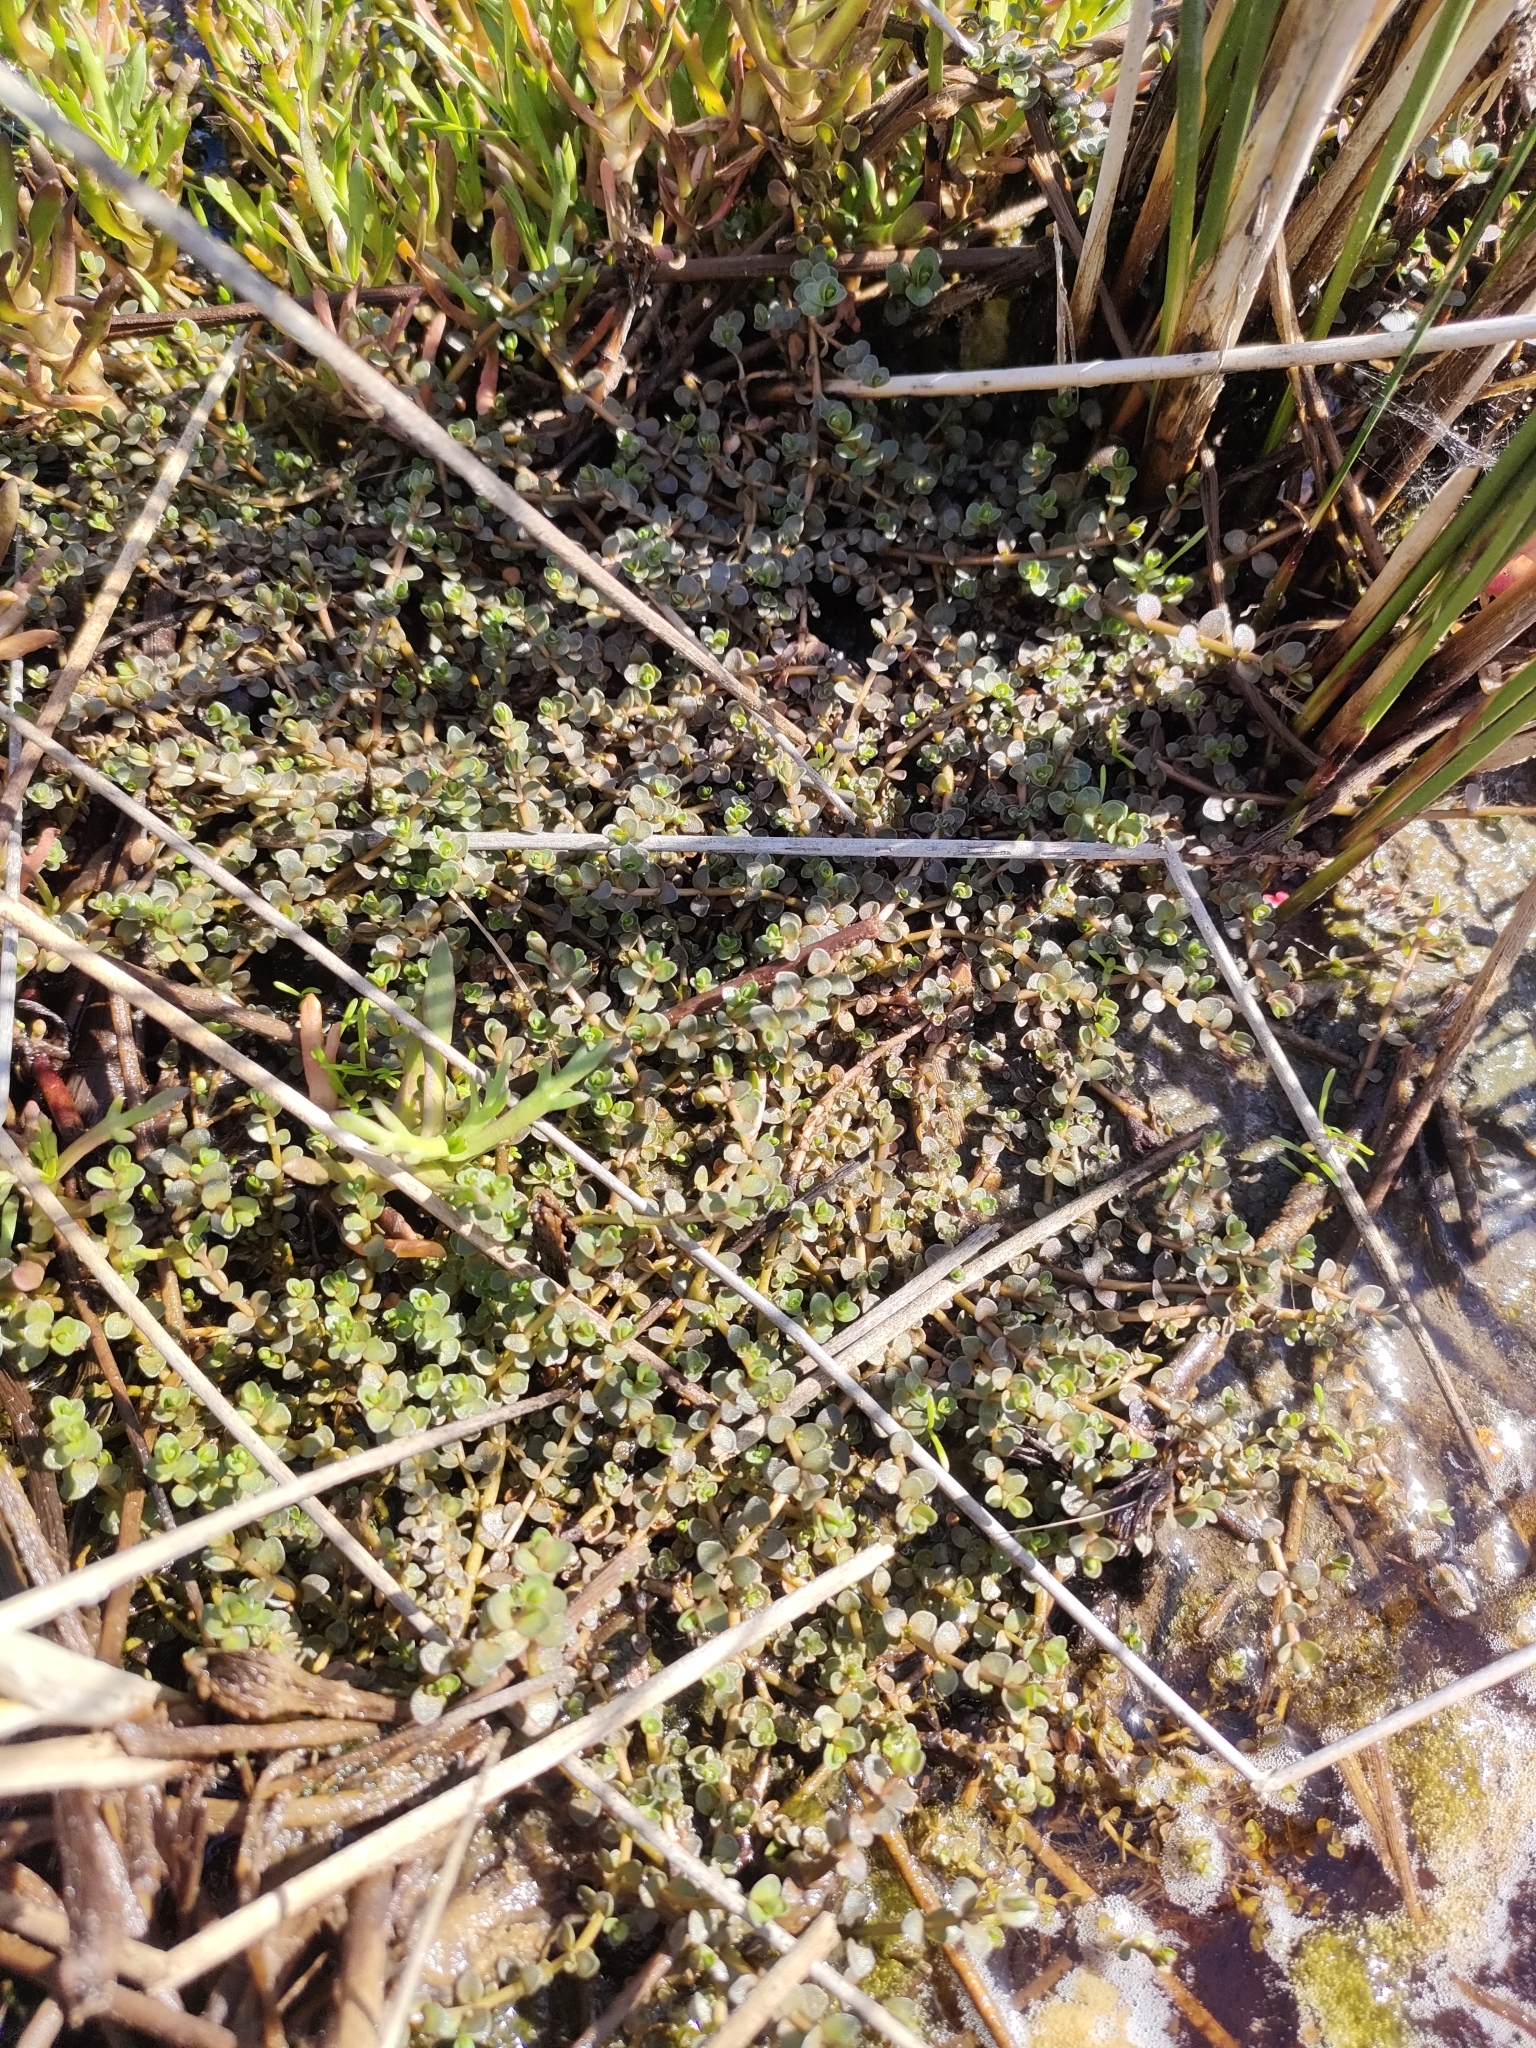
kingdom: Plantae
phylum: Tracheophyta
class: Magnoliopsida
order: Lamiales
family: Phrymaceae
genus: Thyridia
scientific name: Thyridia repens
